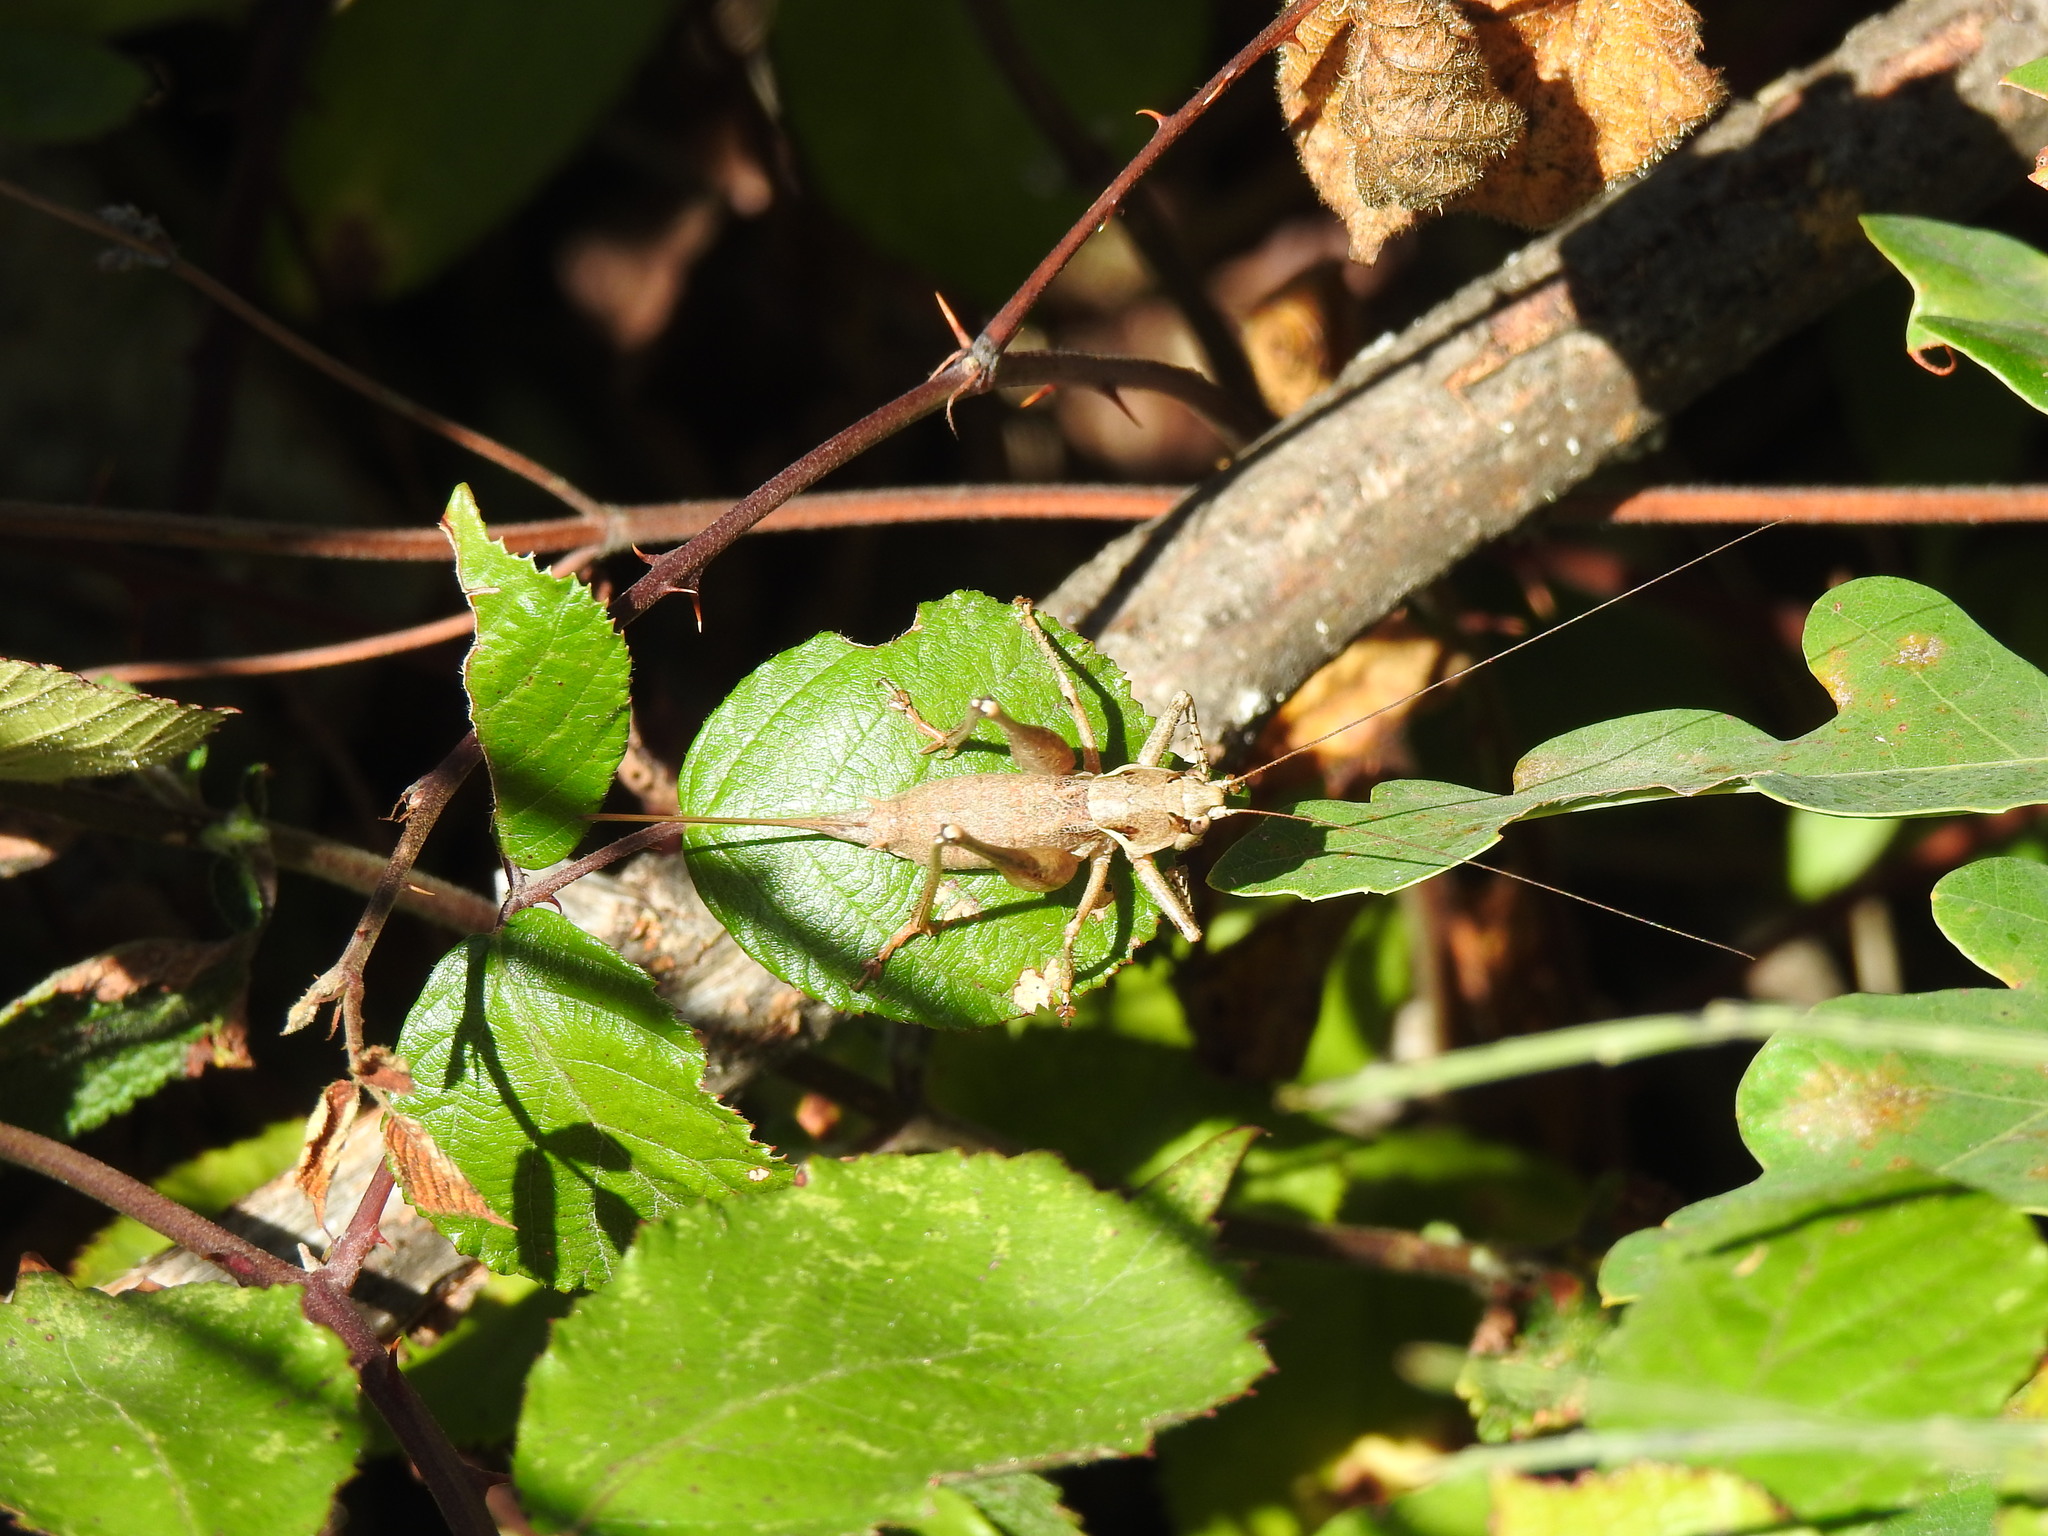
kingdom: Animalia
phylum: Arthropoda
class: Insecta
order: Orthoptera
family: Tettigoniidae
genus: Antaxius
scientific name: Antaxius spinibrachius
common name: Spiny-legged bush-cricket
